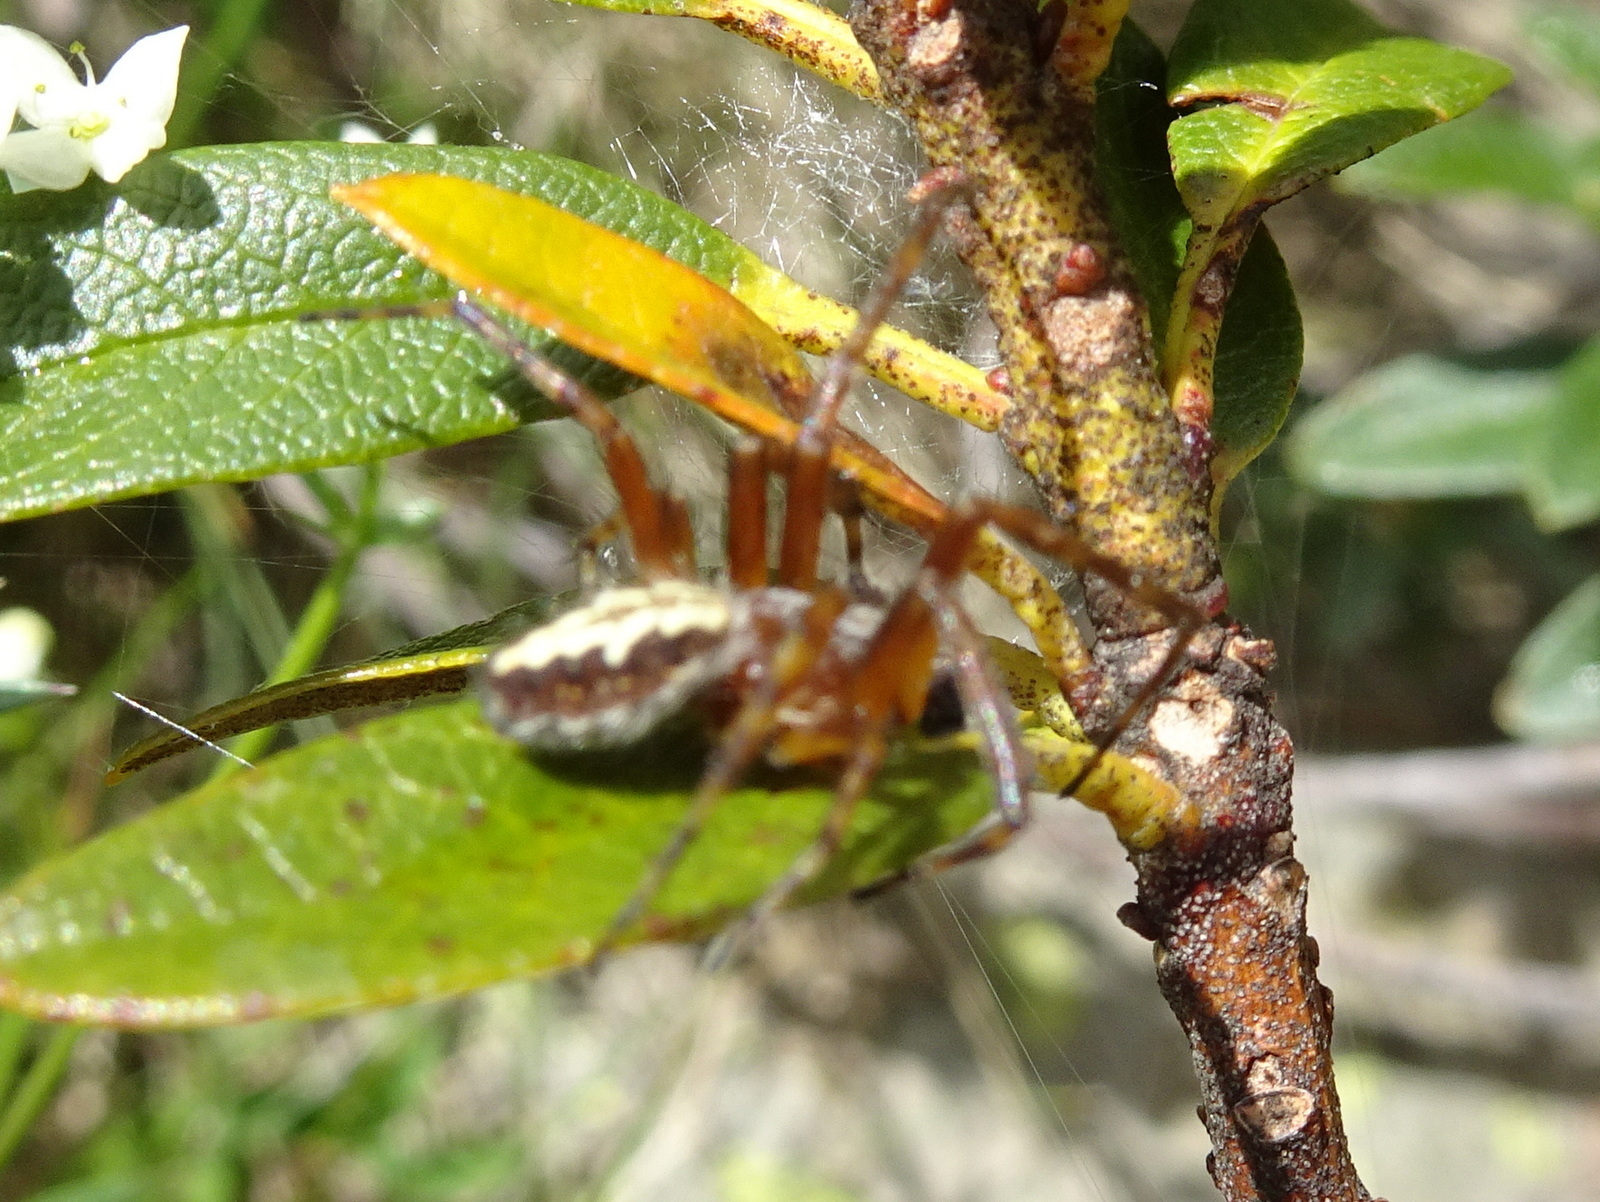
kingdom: Animalia
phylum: Arthropoda
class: Arachnida
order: Araneae
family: Araneidae
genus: Aculepeira
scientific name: Aculepeira ceropegia
